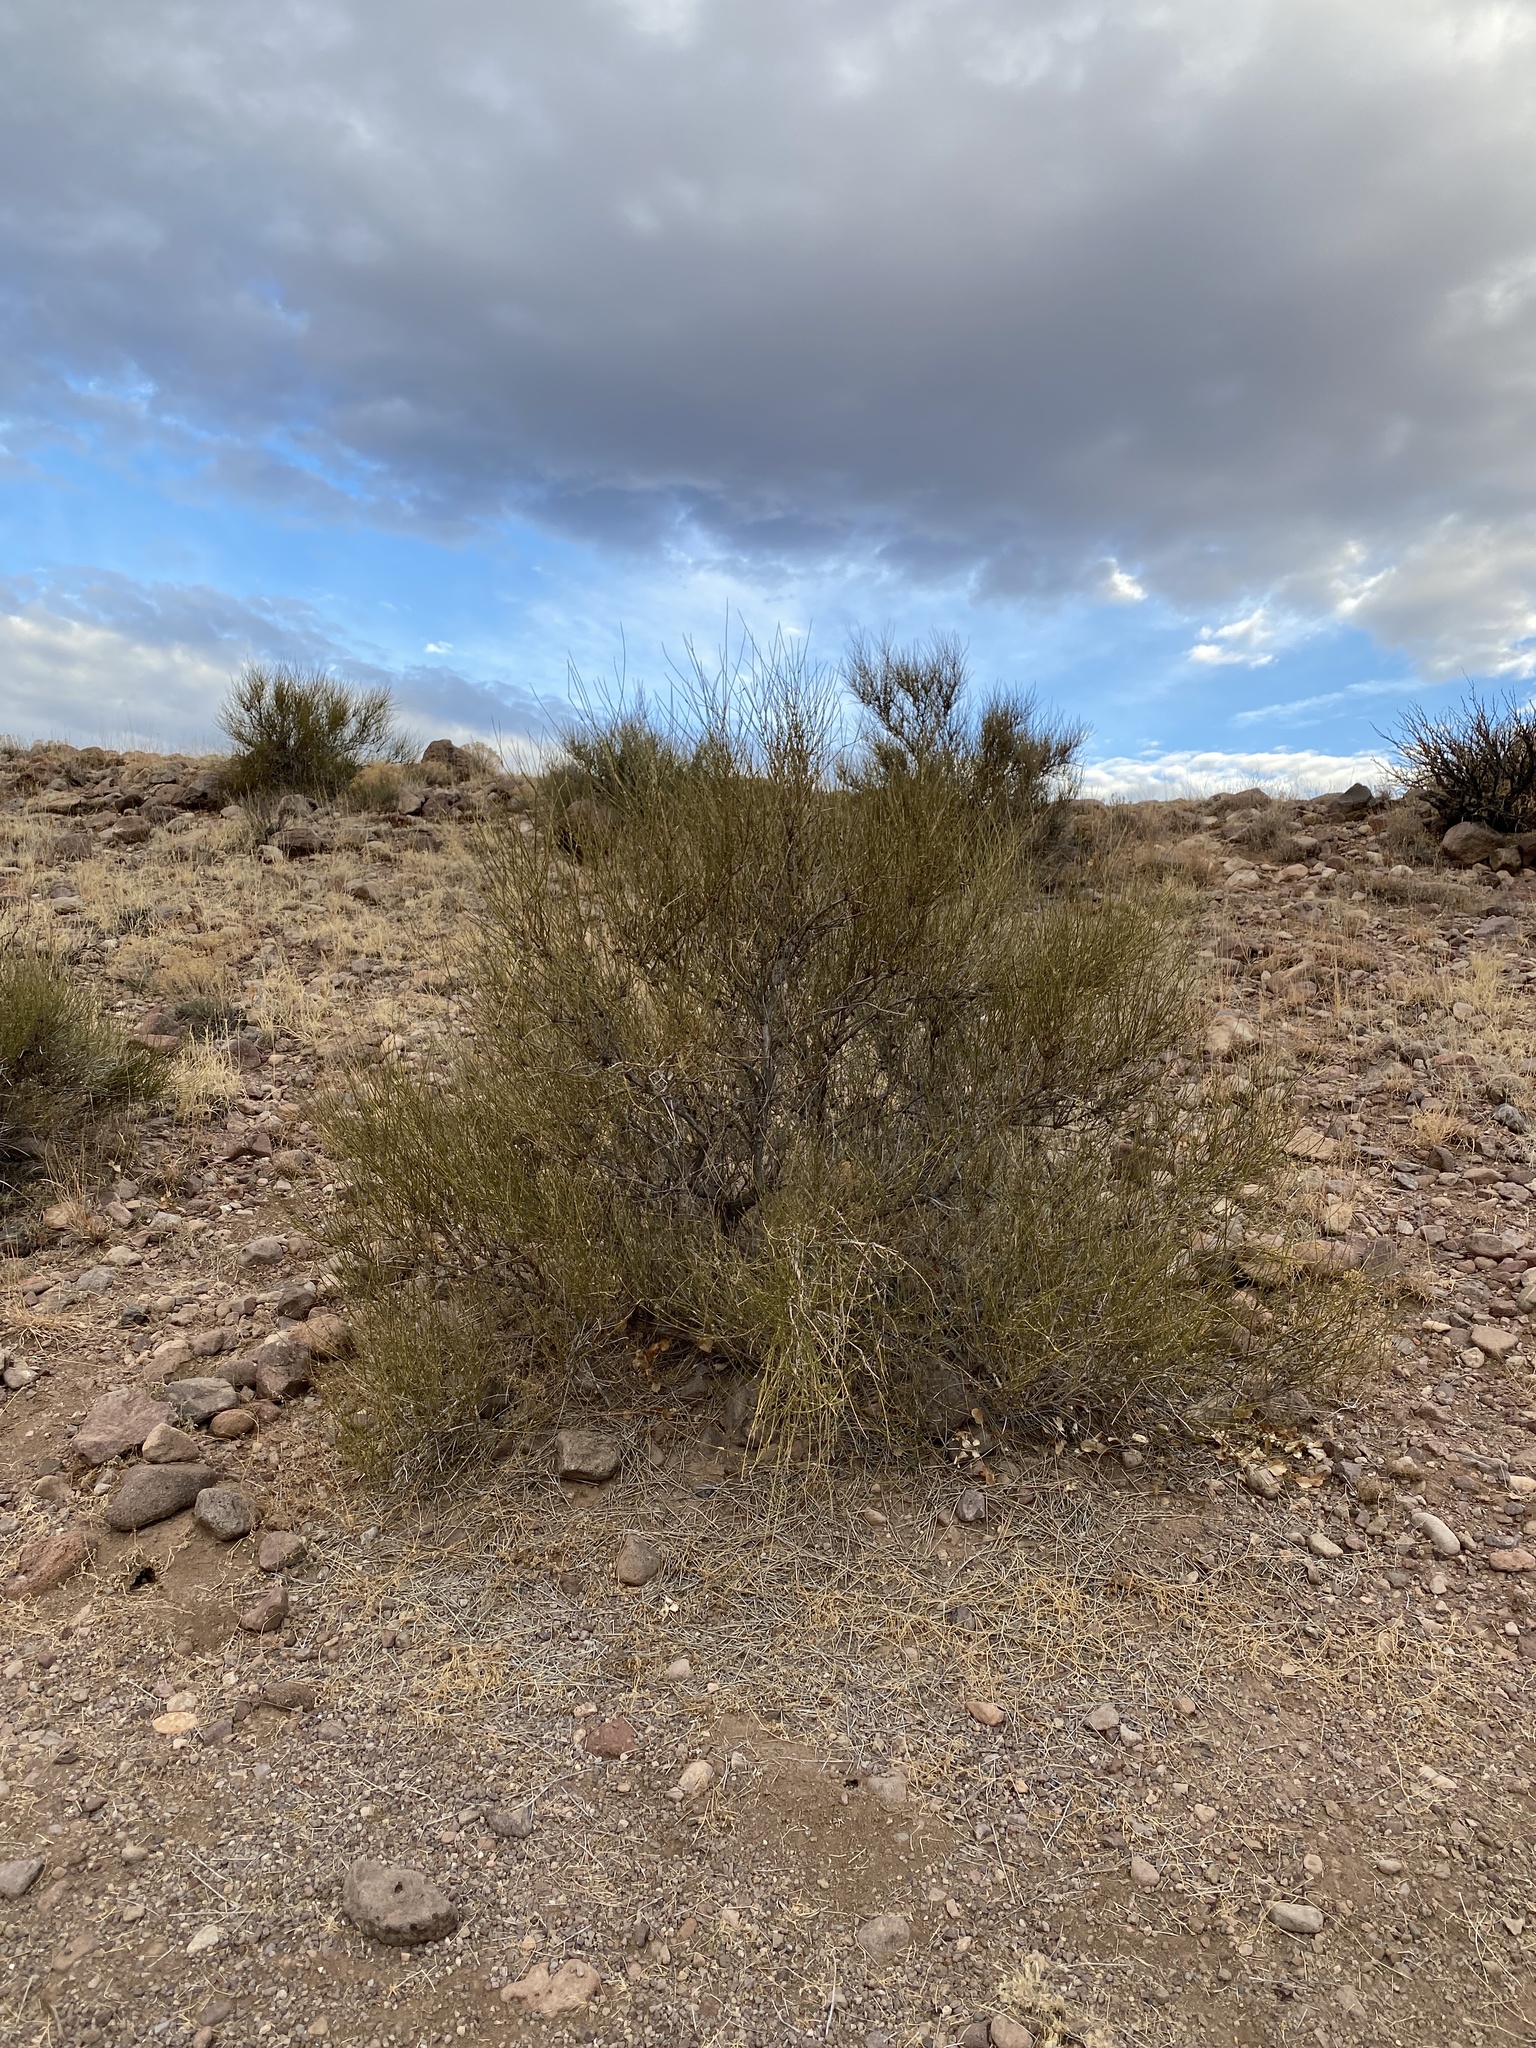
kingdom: Plantae
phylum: Tracheophyta
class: Gnetopsida
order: Ephedrales
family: Ephedraceae
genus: Ephedra
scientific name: Ephedra trifurca
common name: Mexican-tea
